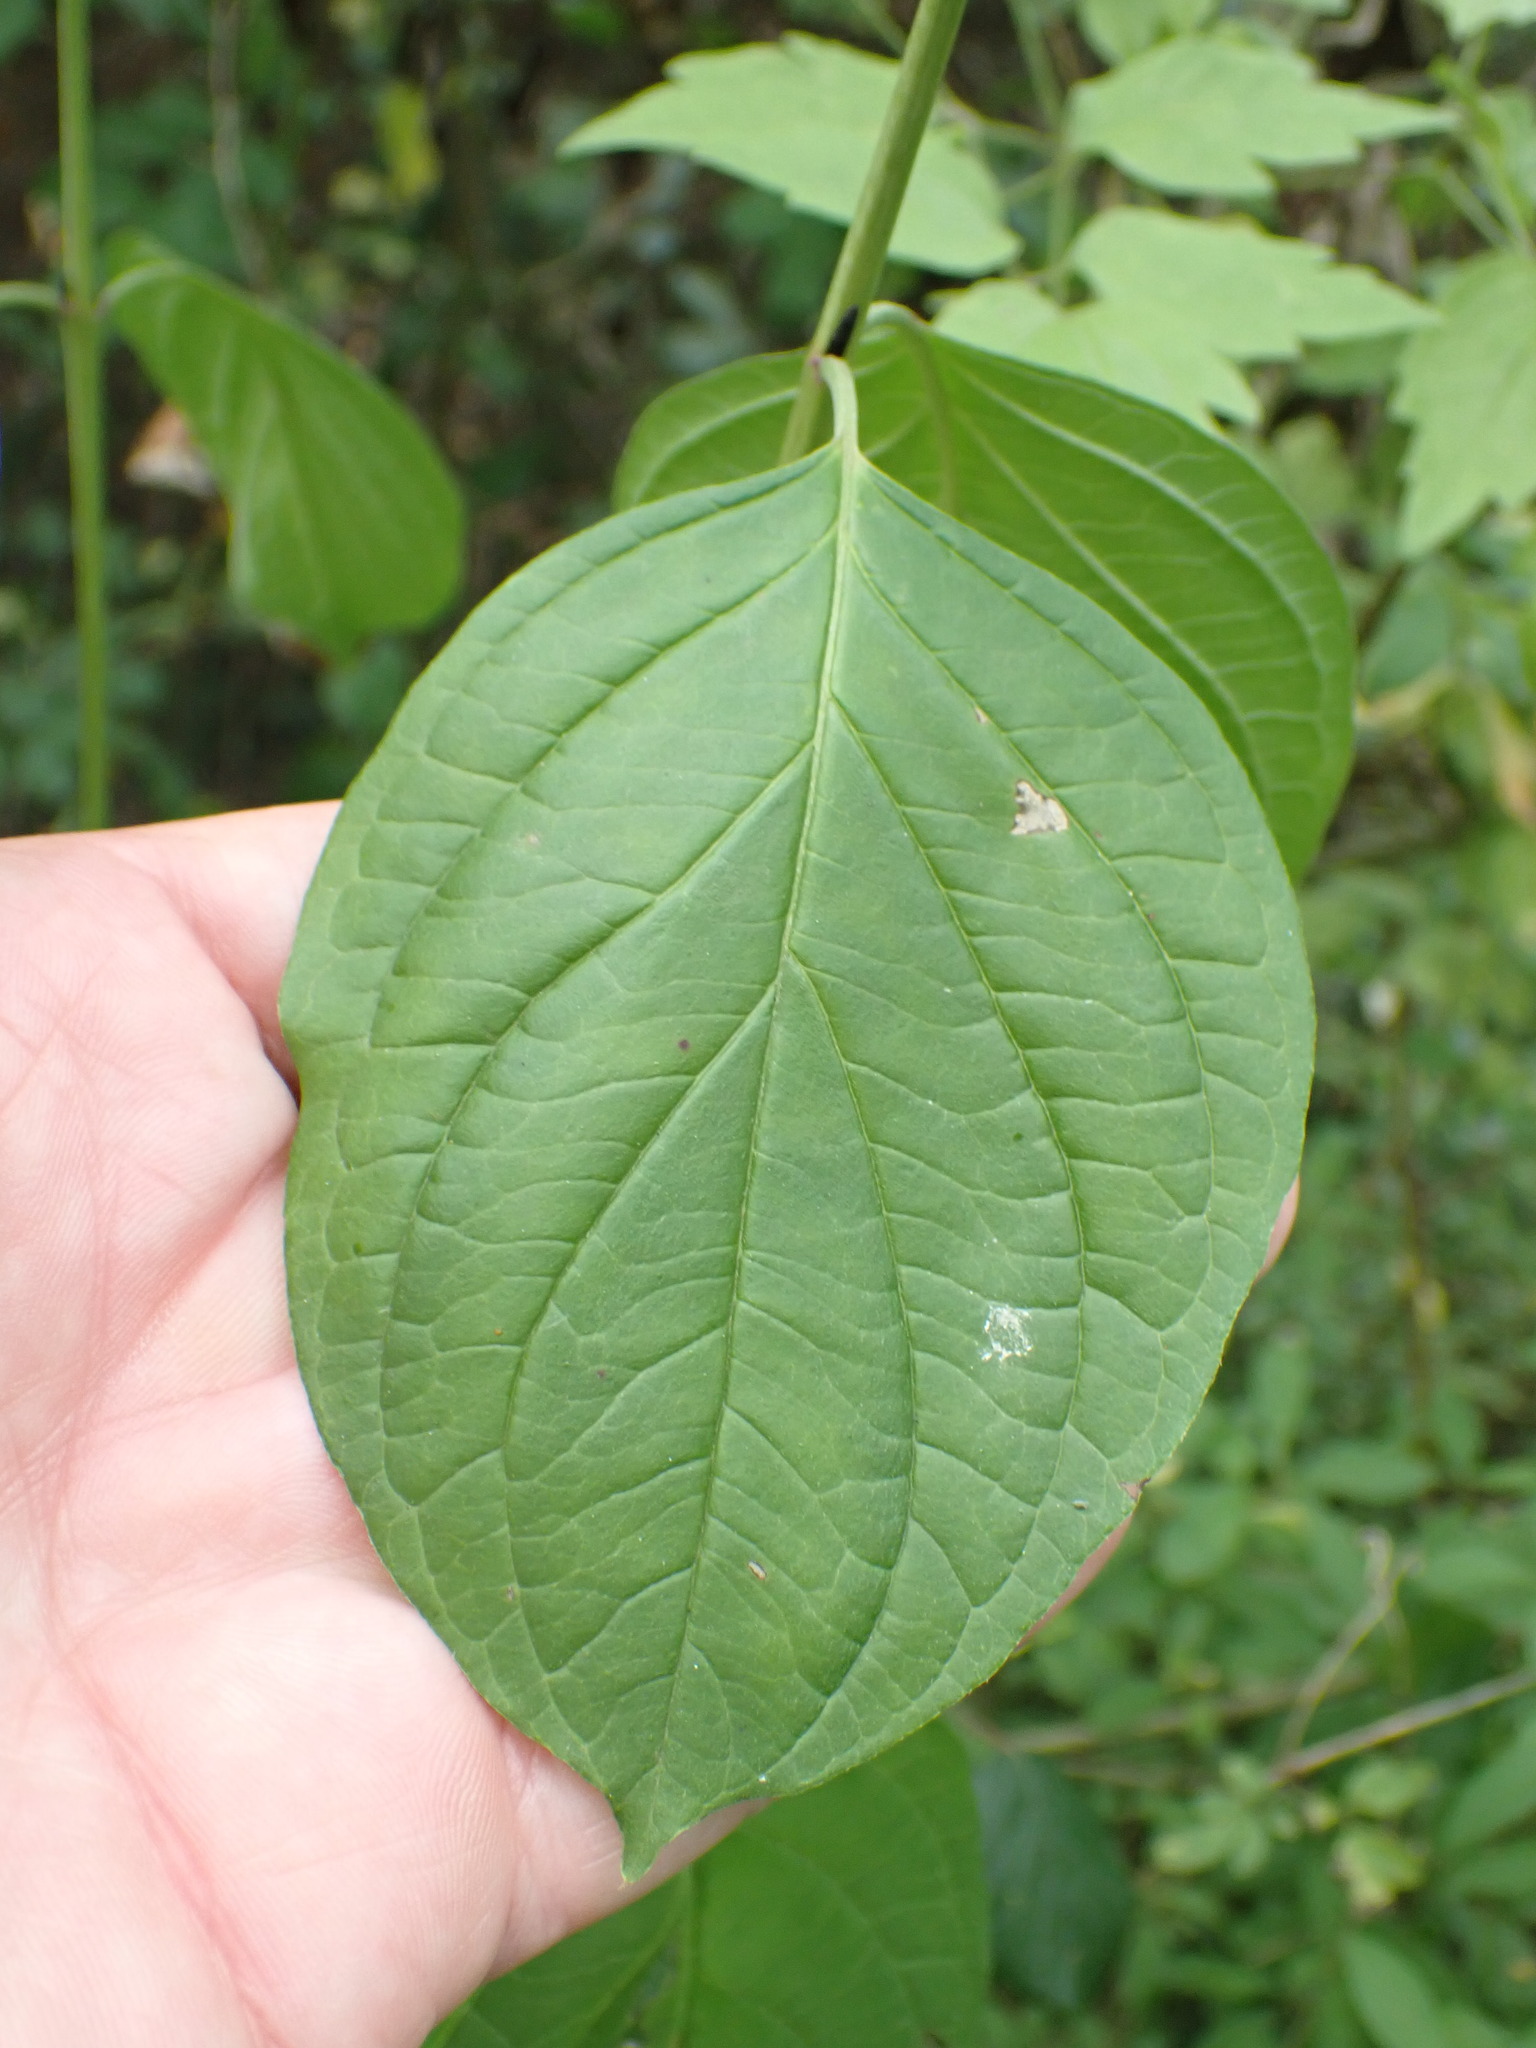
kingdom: Plantae
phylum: Tracheophyta
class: Magnoliopsida
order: Cornales
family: Cornaceae
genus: Cornus
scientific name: Cornus sanguinea
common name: Dogwood
